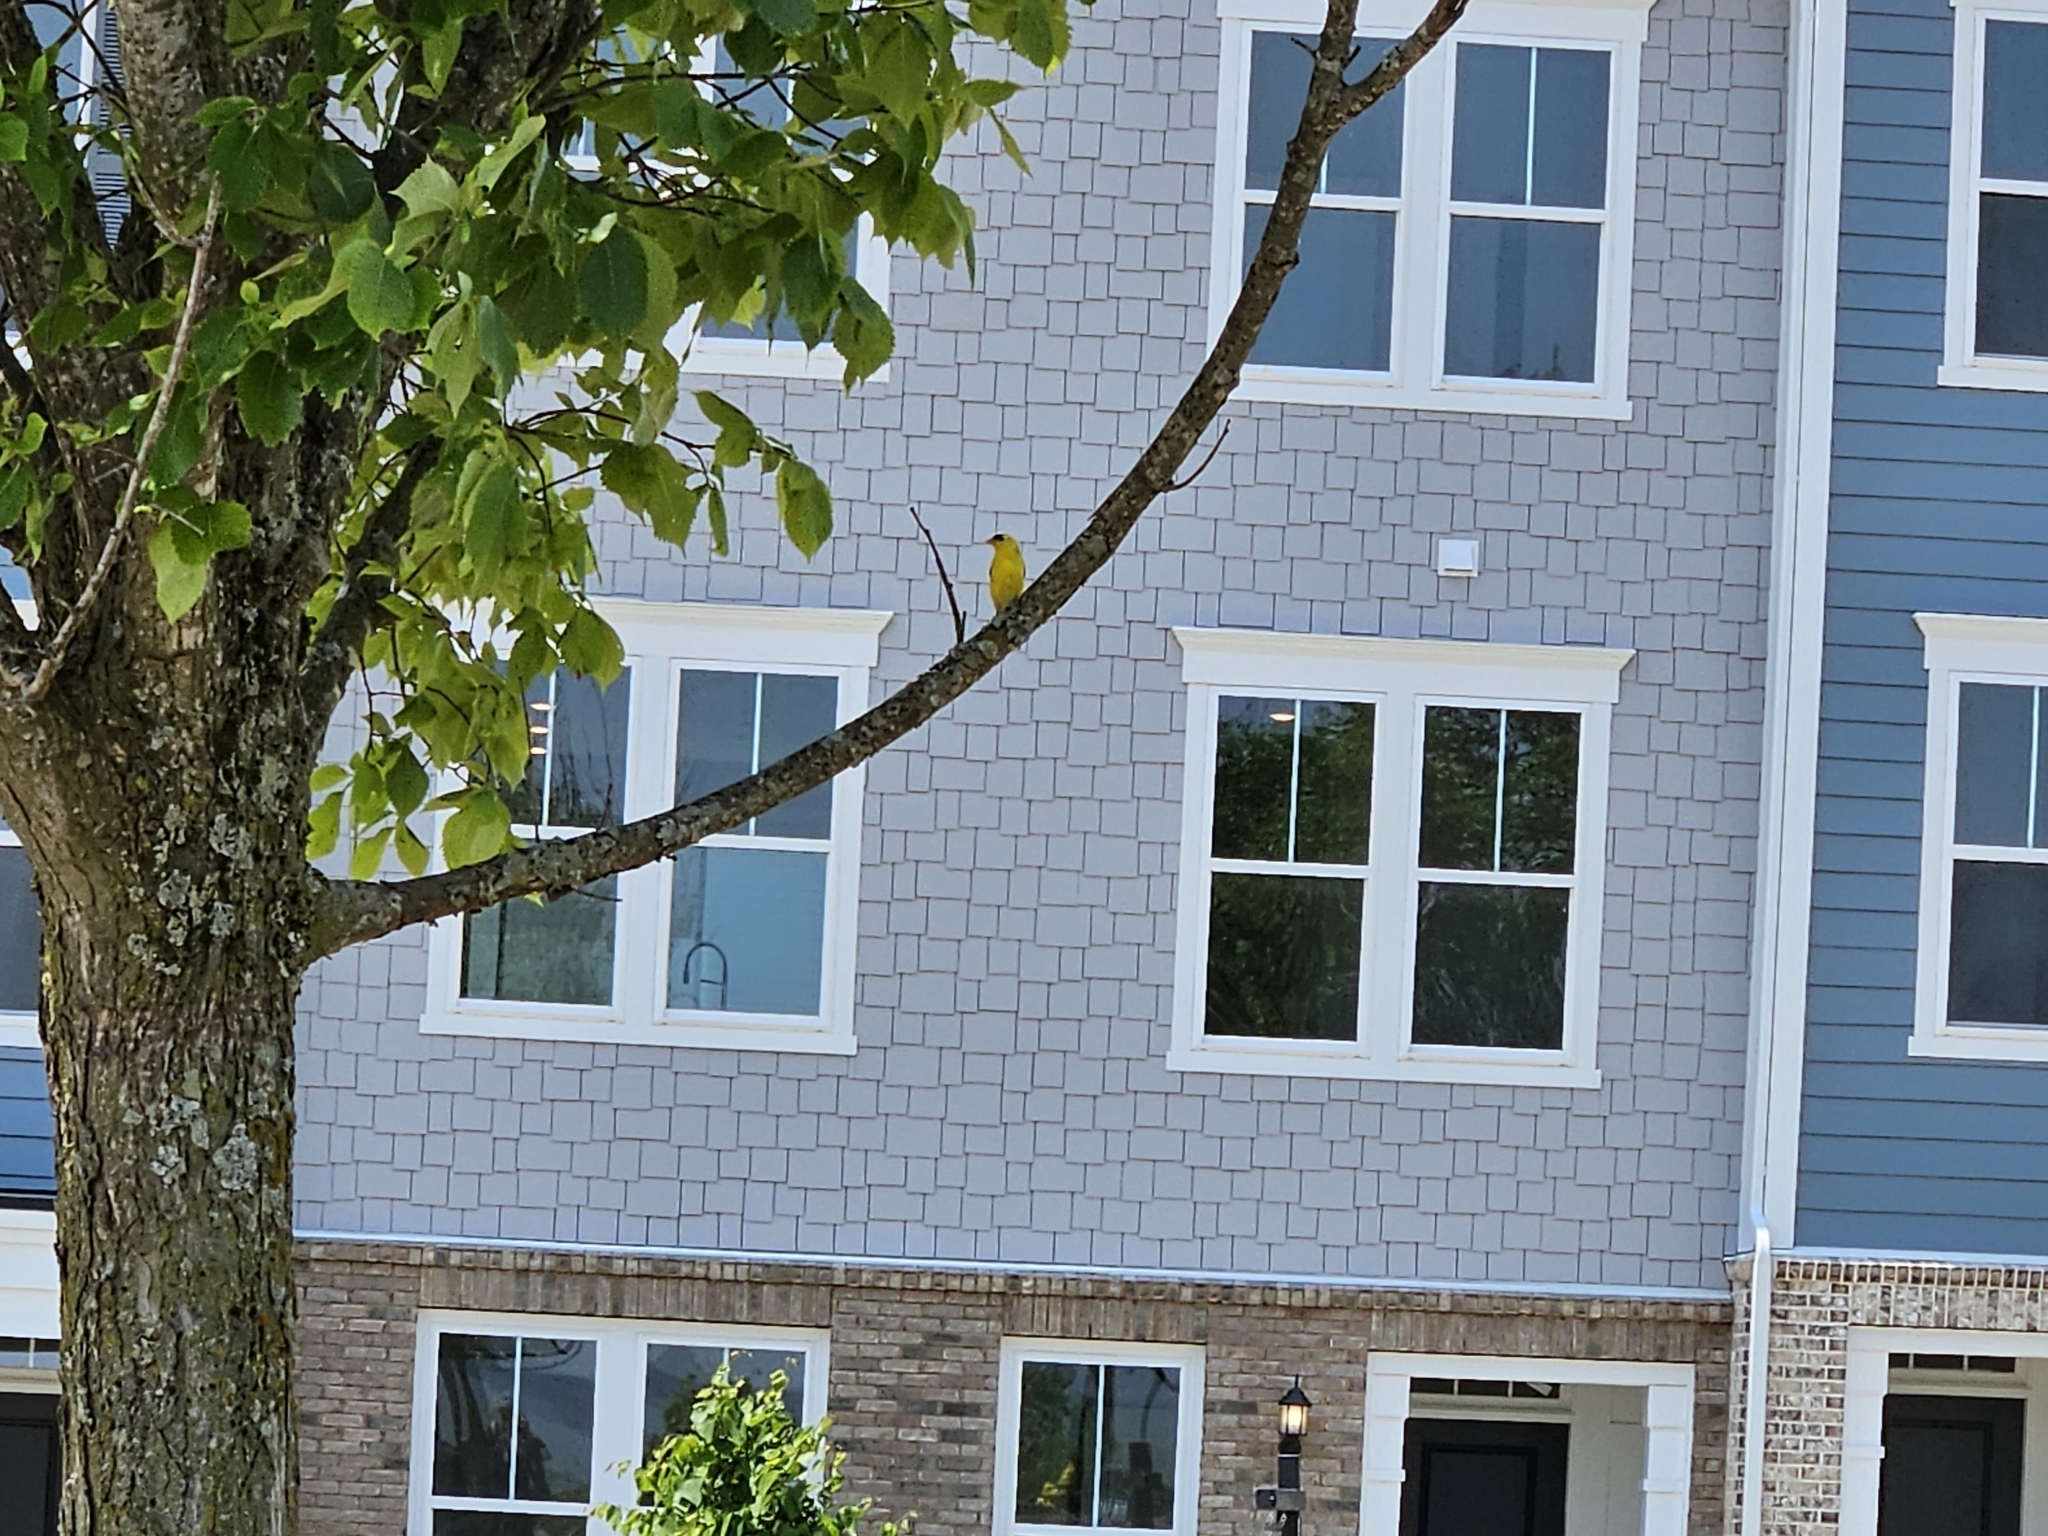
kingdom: Animalia
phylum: Chordata
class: Aves
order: Passeriformes
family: Fringillidae
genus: Spinus
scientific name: Spinus tristis
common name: American goldfinch
